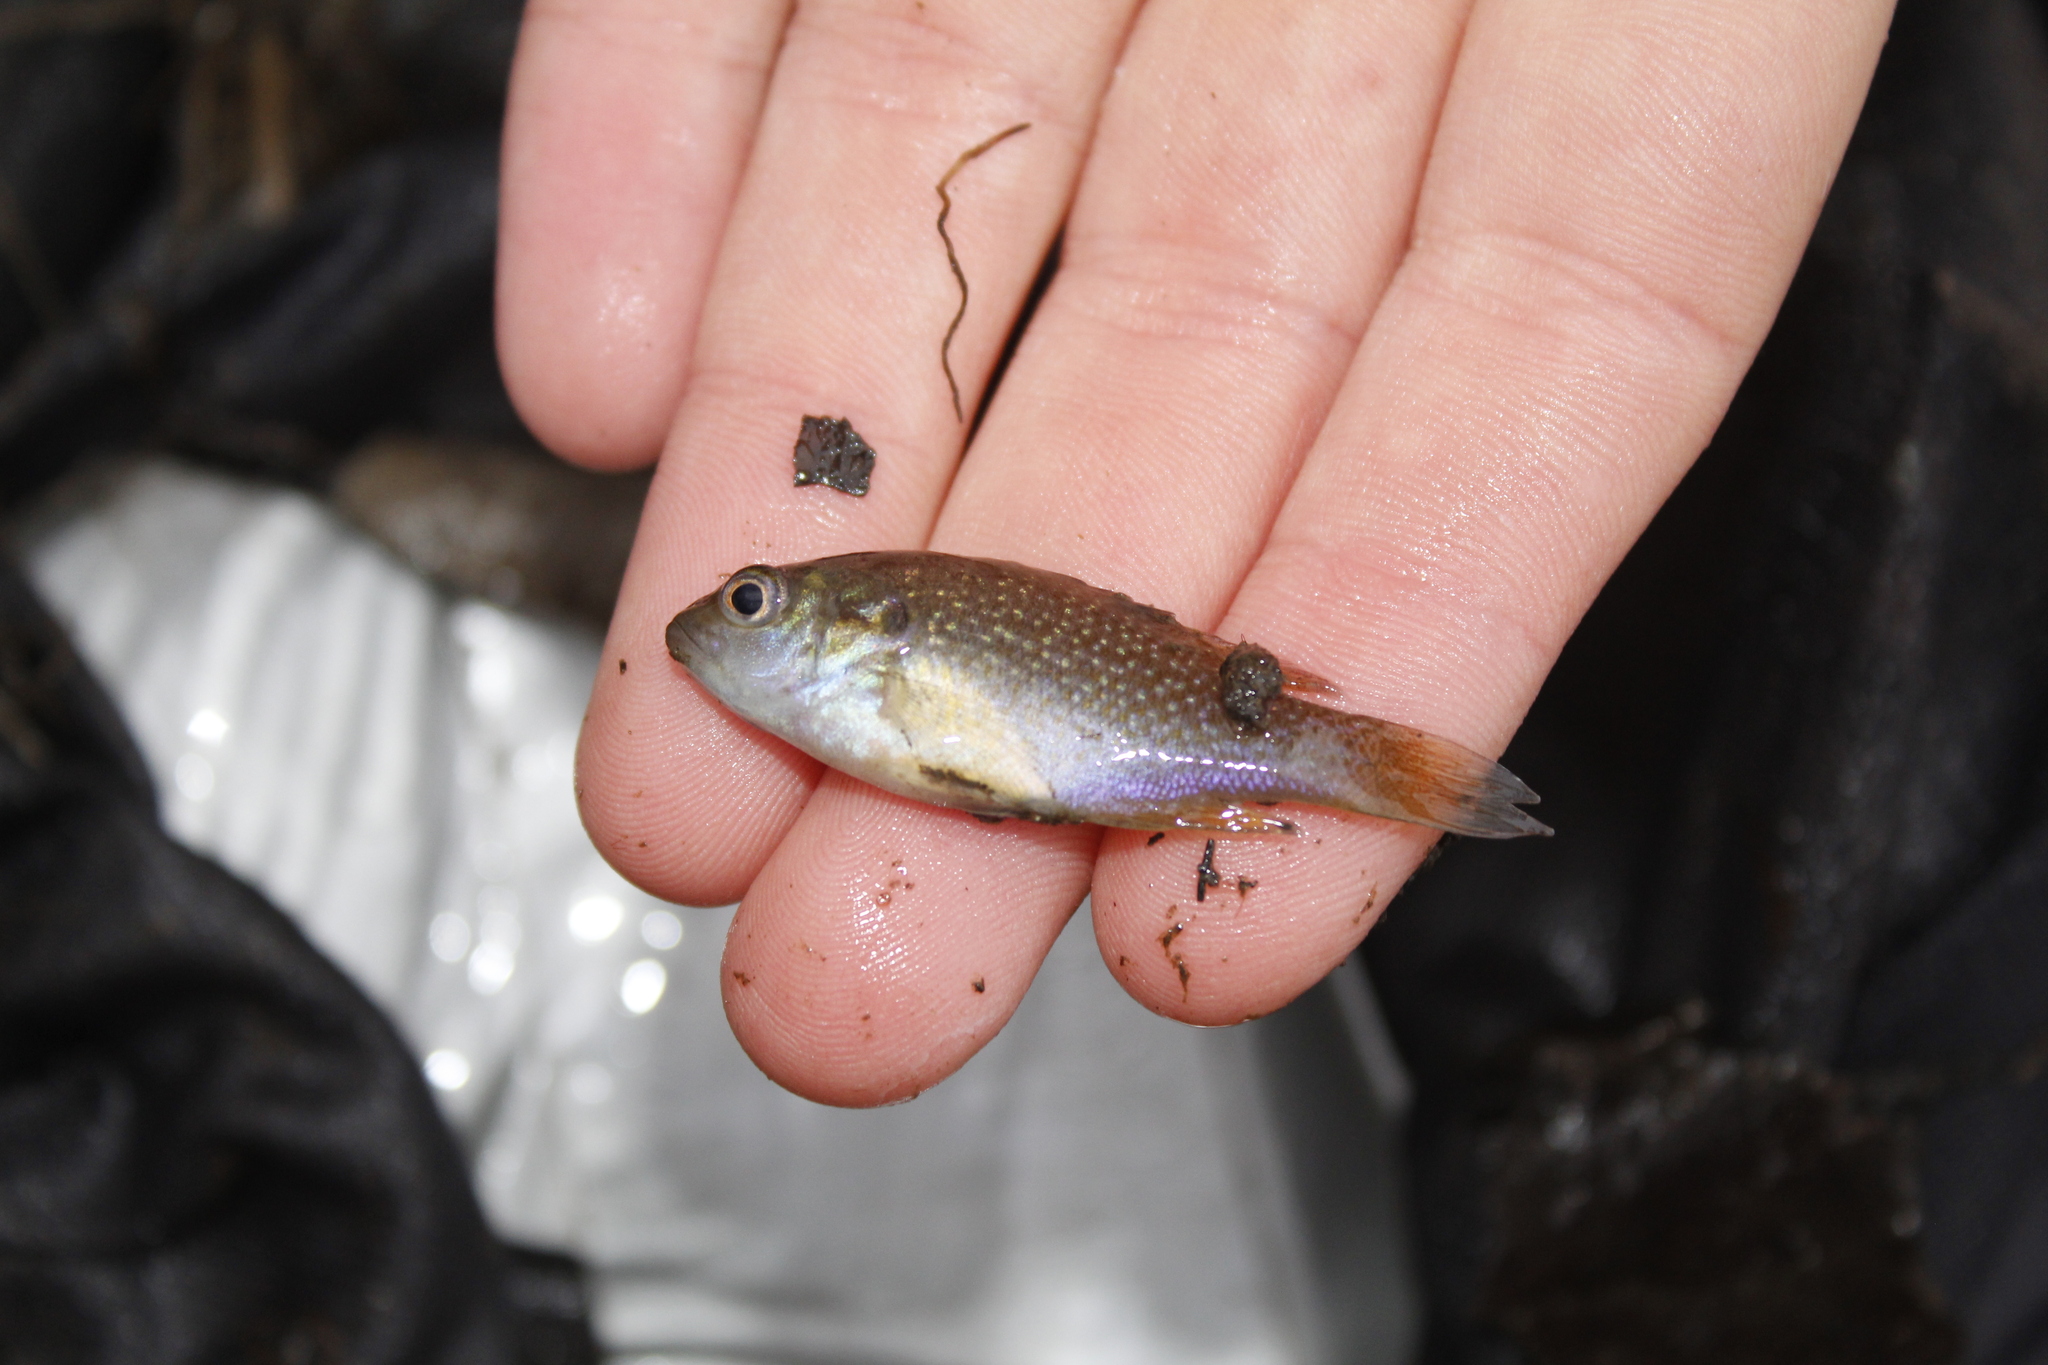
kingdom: Animalia
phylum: Chordata
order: Perciformes
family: Centrarchidae
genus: Lepomis
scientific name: Lepomis cyanellus
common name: Green sunfish
